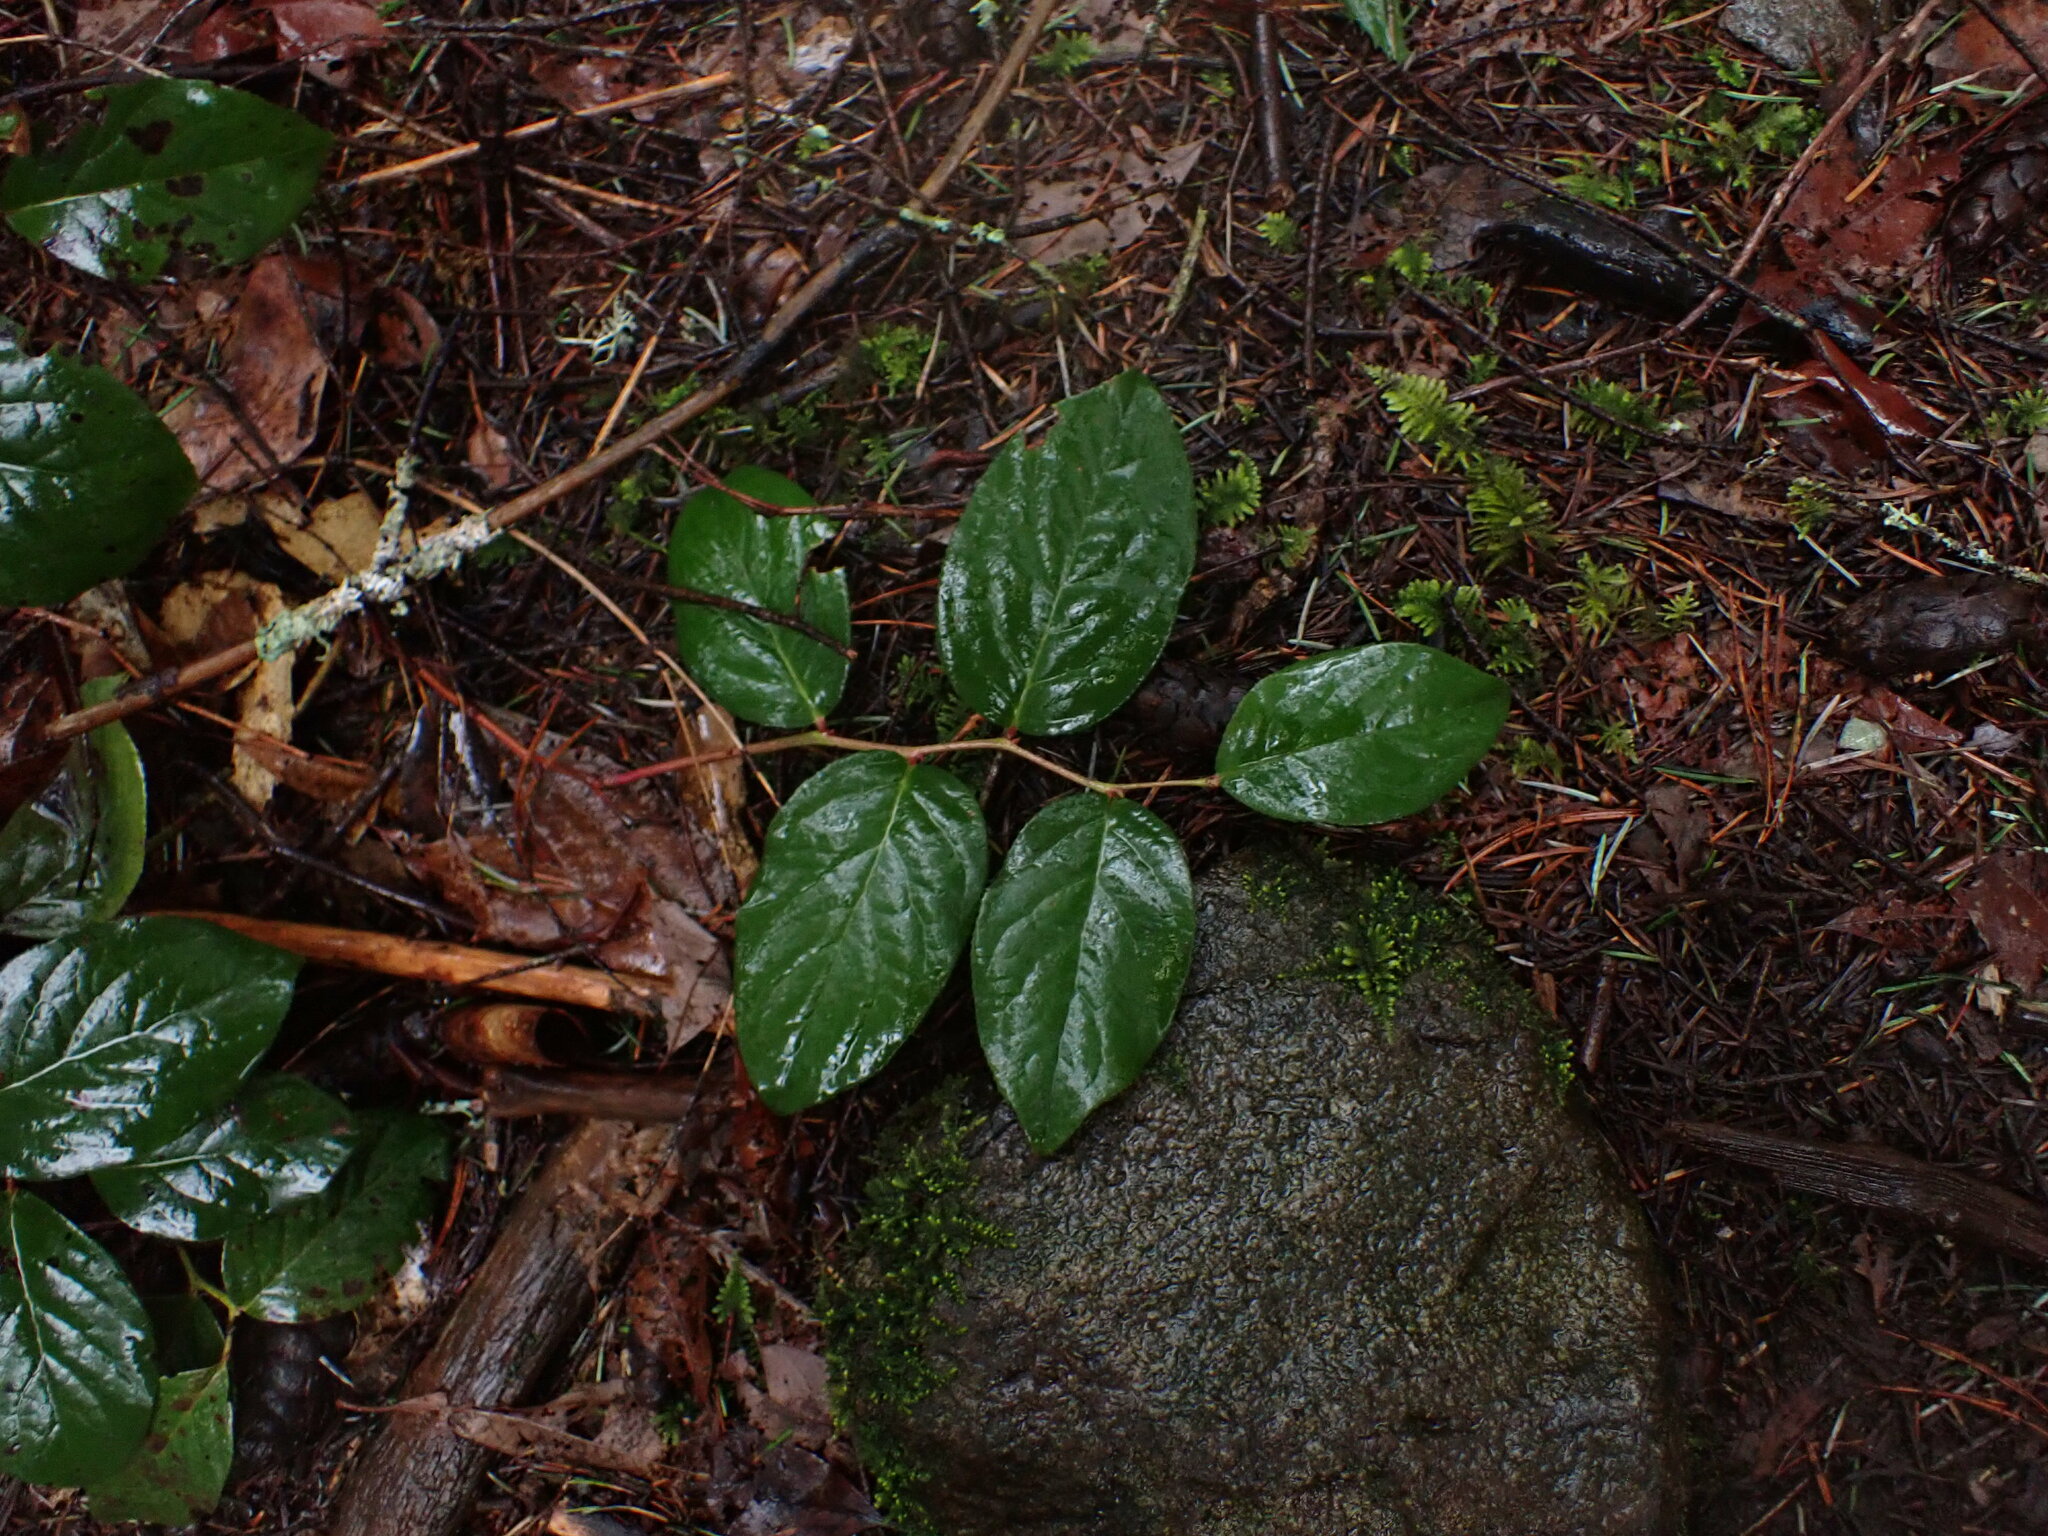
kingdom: Plantae
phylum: Tracheophyta
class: Magnoliopsida
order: Ericales
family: Ericaceae
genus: Gaultheria
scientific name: Gaultheria shallon
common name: Shallon
